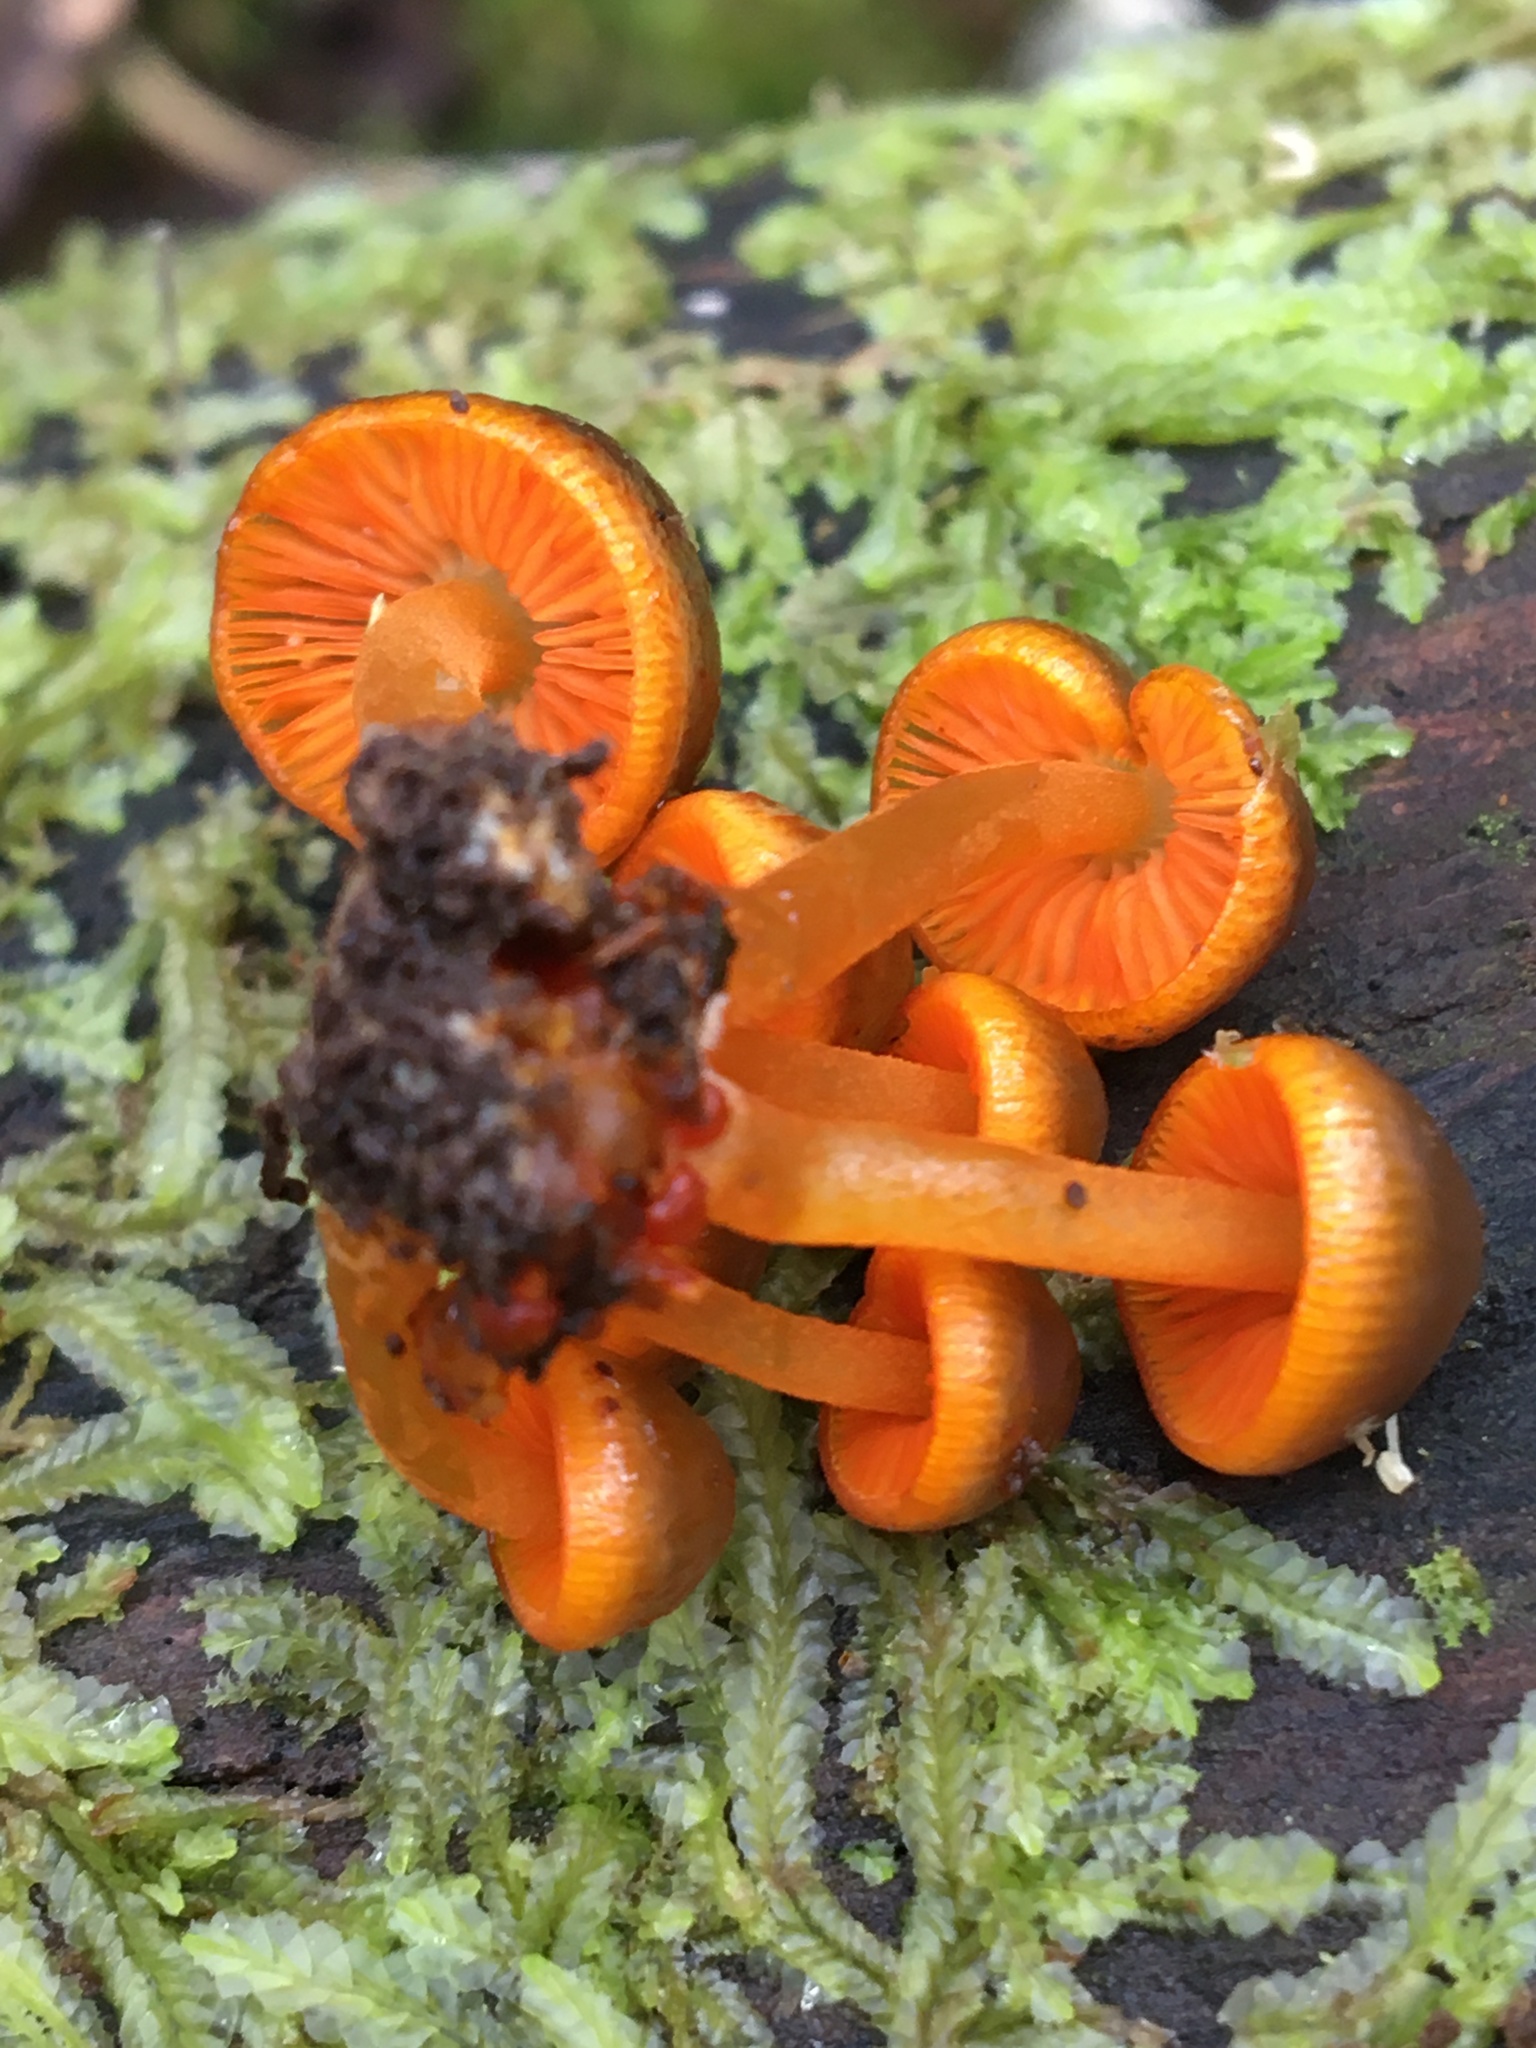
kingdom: Fungi
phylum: Basidiomycota
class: Agaricomycetes
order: Agaricales
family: Mycenaceae
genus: Mycena
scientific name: Mycena leaiana
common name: Orange mycena
